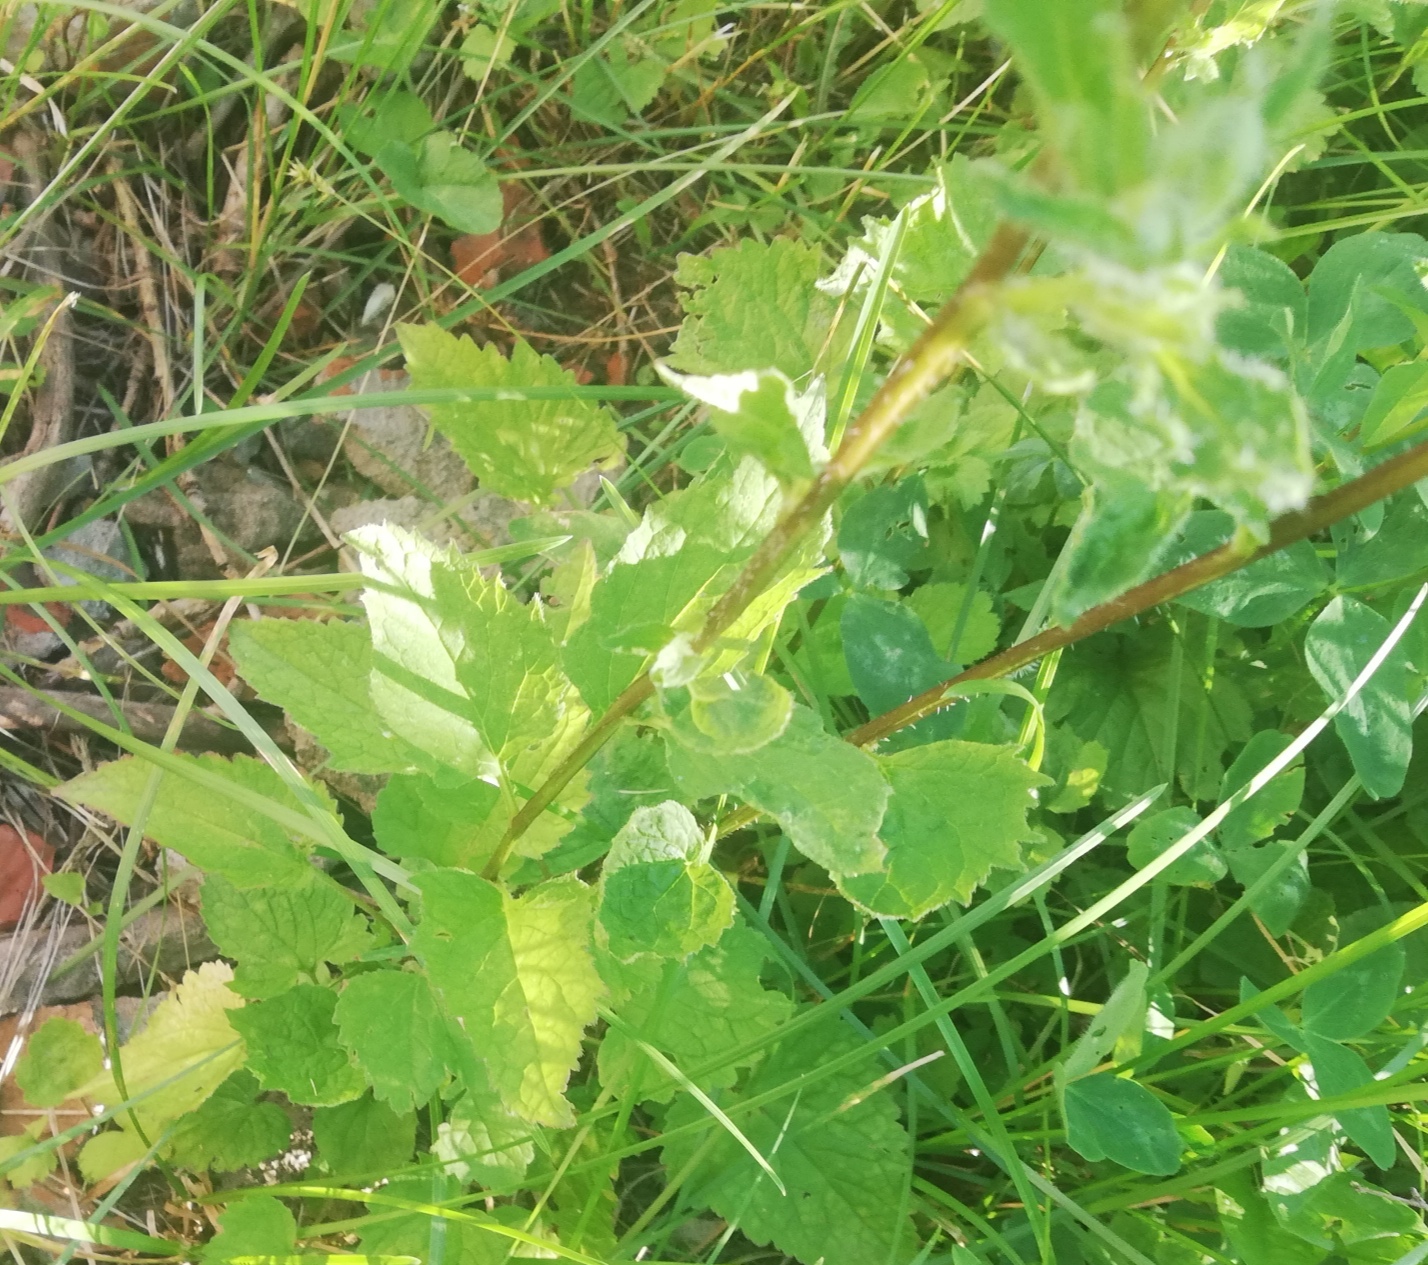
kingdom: Plantae
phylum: Tracheophyta
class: Magnoliopsida
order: Asterales
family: Campanulaceae
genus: Campanula
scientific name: Campanula glomerata
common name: Clustered bellflower
